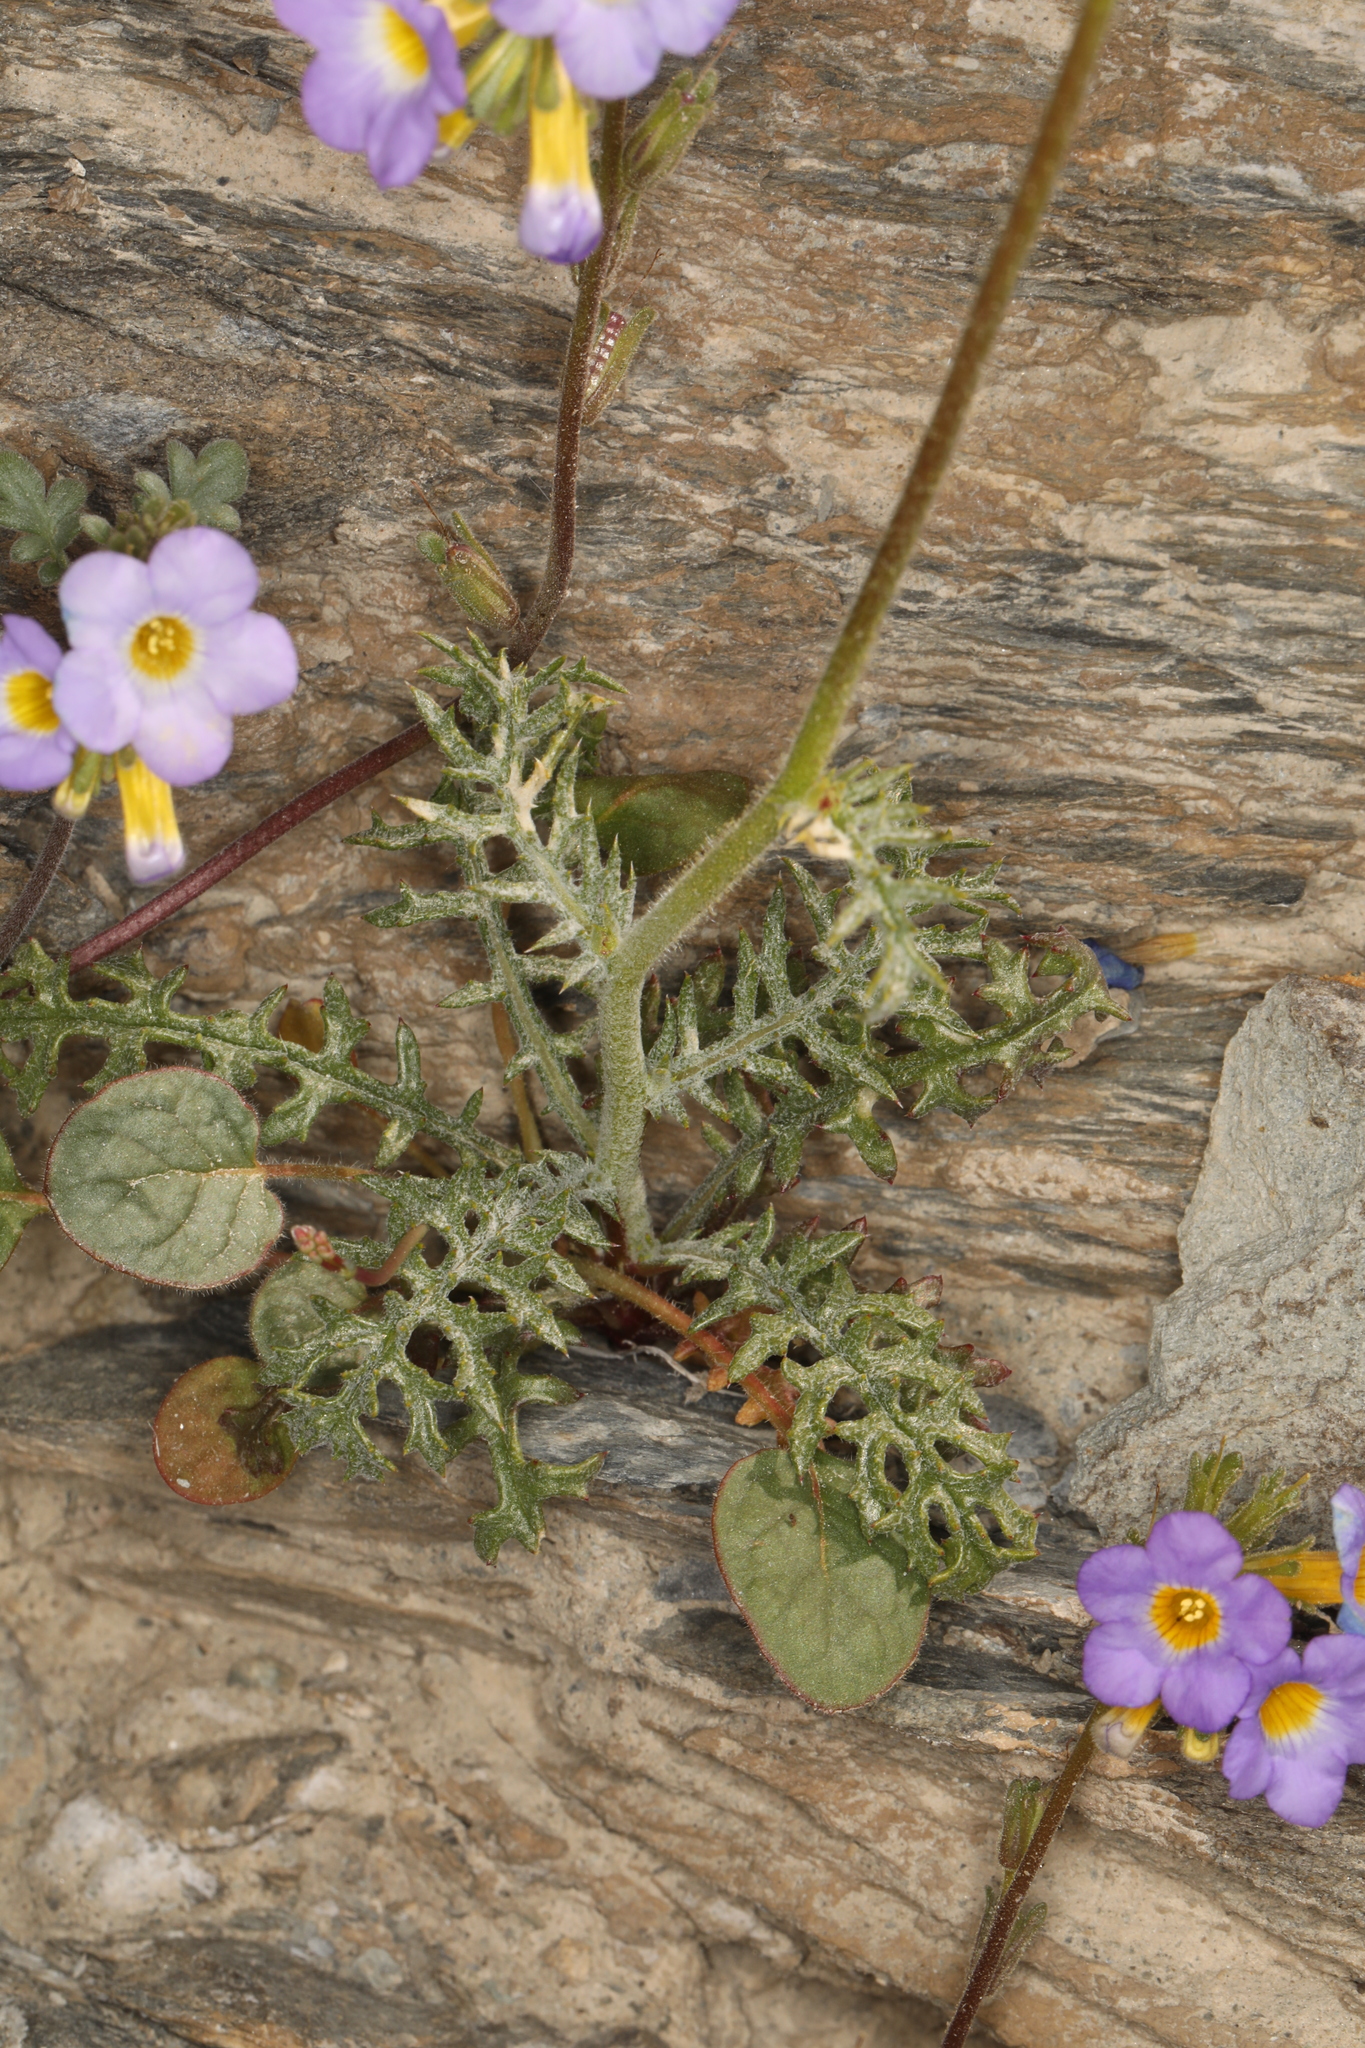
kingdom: Plantae
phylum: Tracheophyta
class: Magnoliopsida
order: Ericales
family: Polemoniaceae
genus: Gilia
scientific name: Gilia cana
